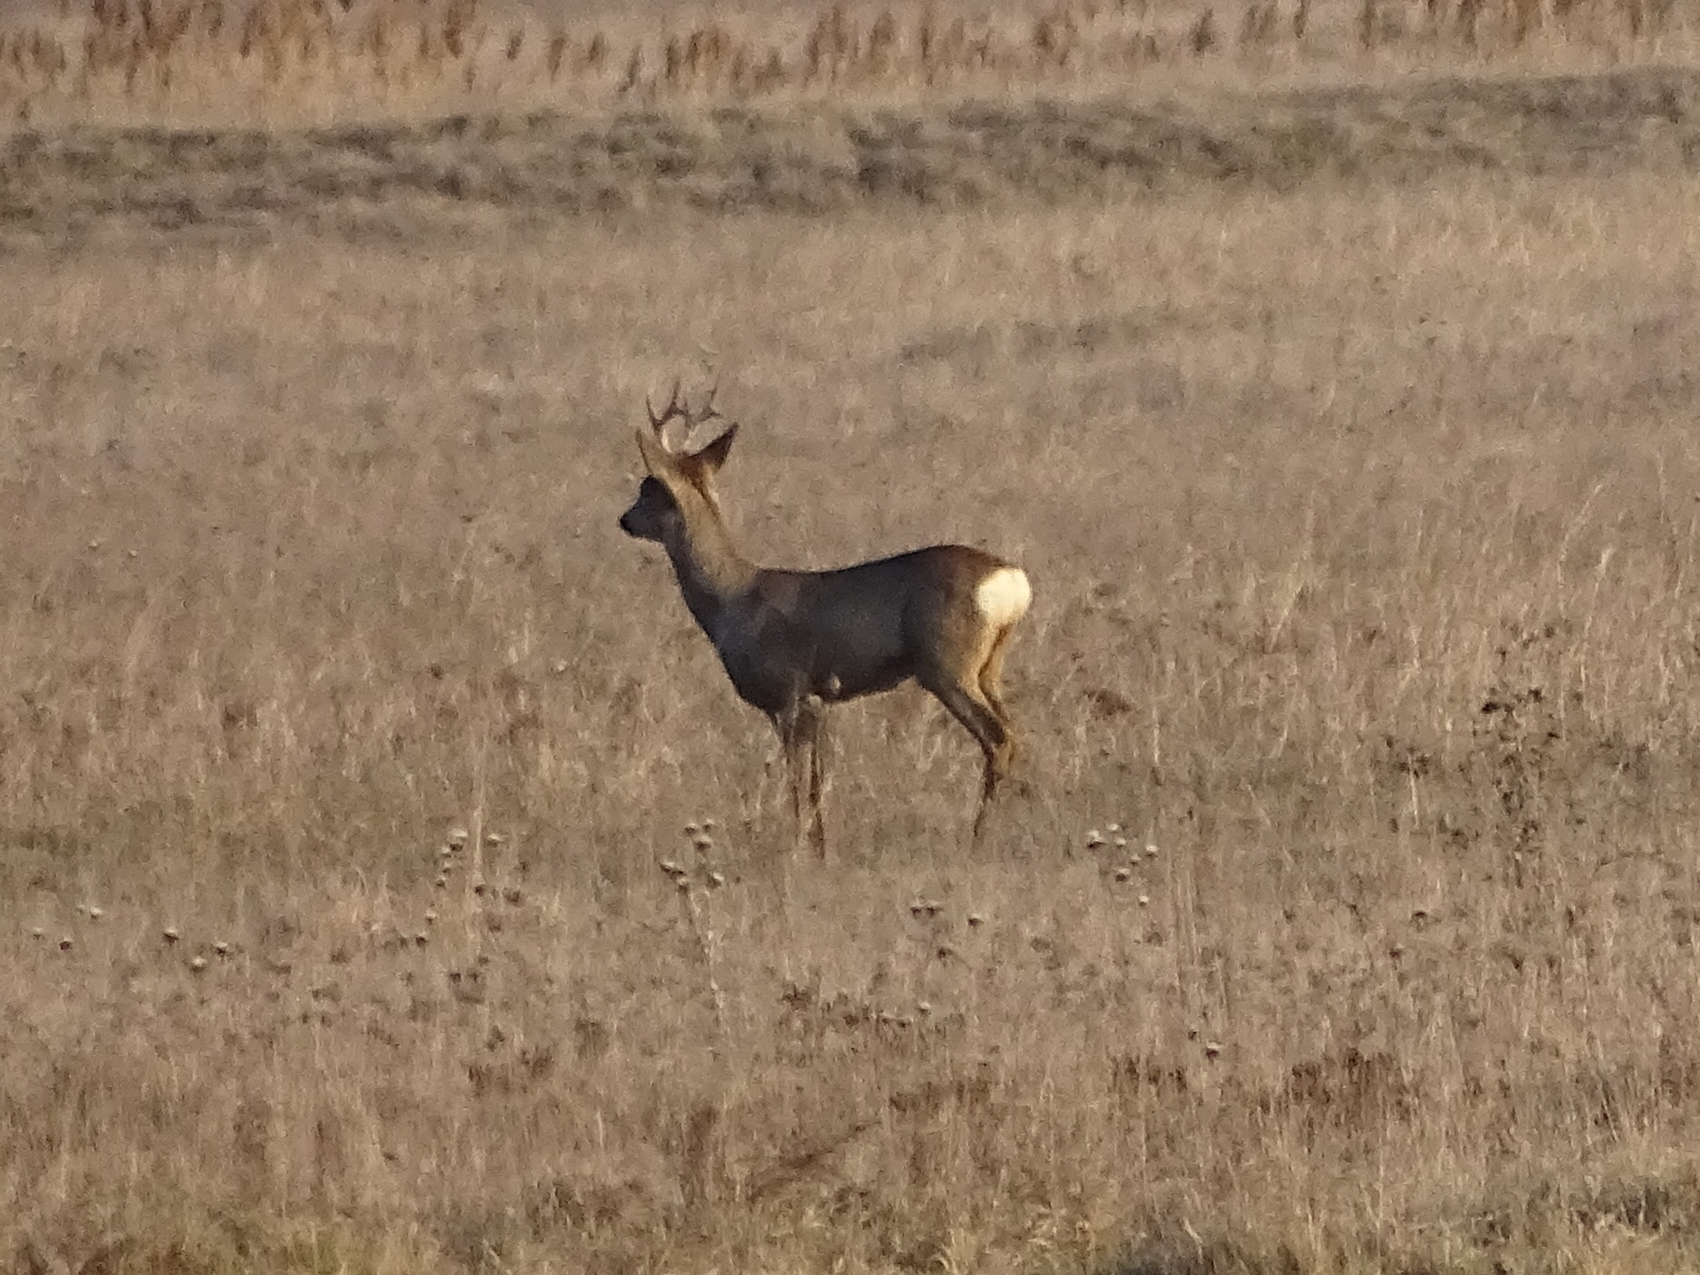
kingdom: Animalia
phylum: Chordata
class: Mammalia
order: Artiodactyla
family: Cervidae
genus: Capreolus
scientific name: Capreolus capreolus
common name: Western roe deer
